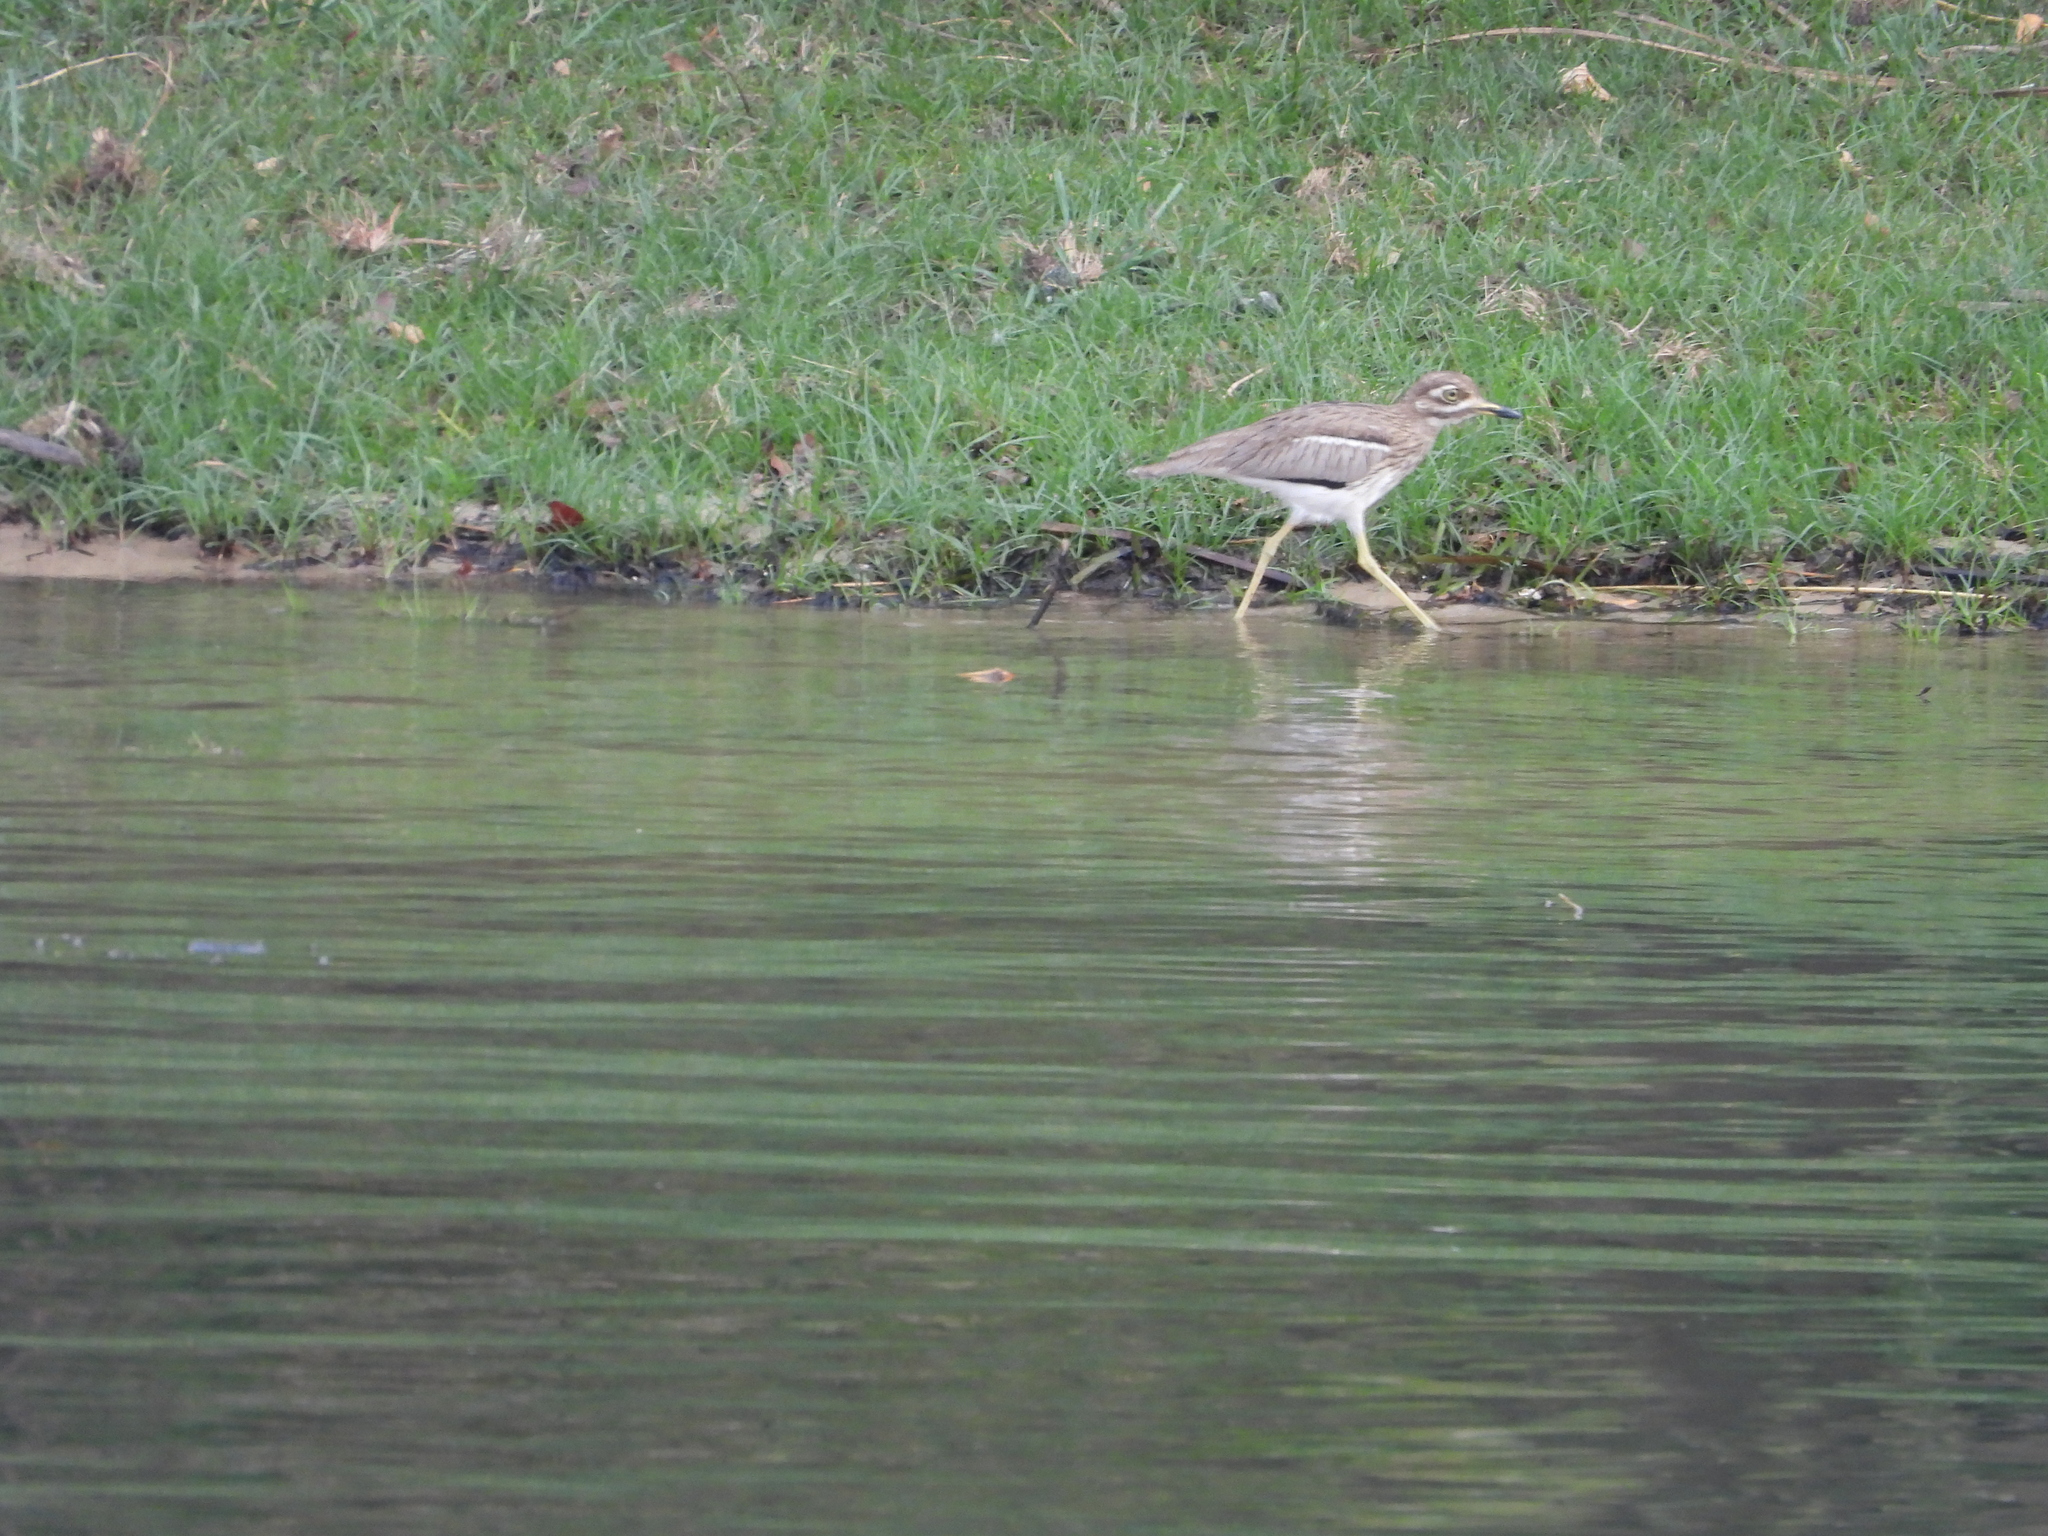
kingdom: Animalia
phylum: Chordata
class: Aves
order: Charadriiformes
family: Burhinidae
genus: Burhinus
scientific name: Burhinus vermiculatus
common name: Water thick-knee
